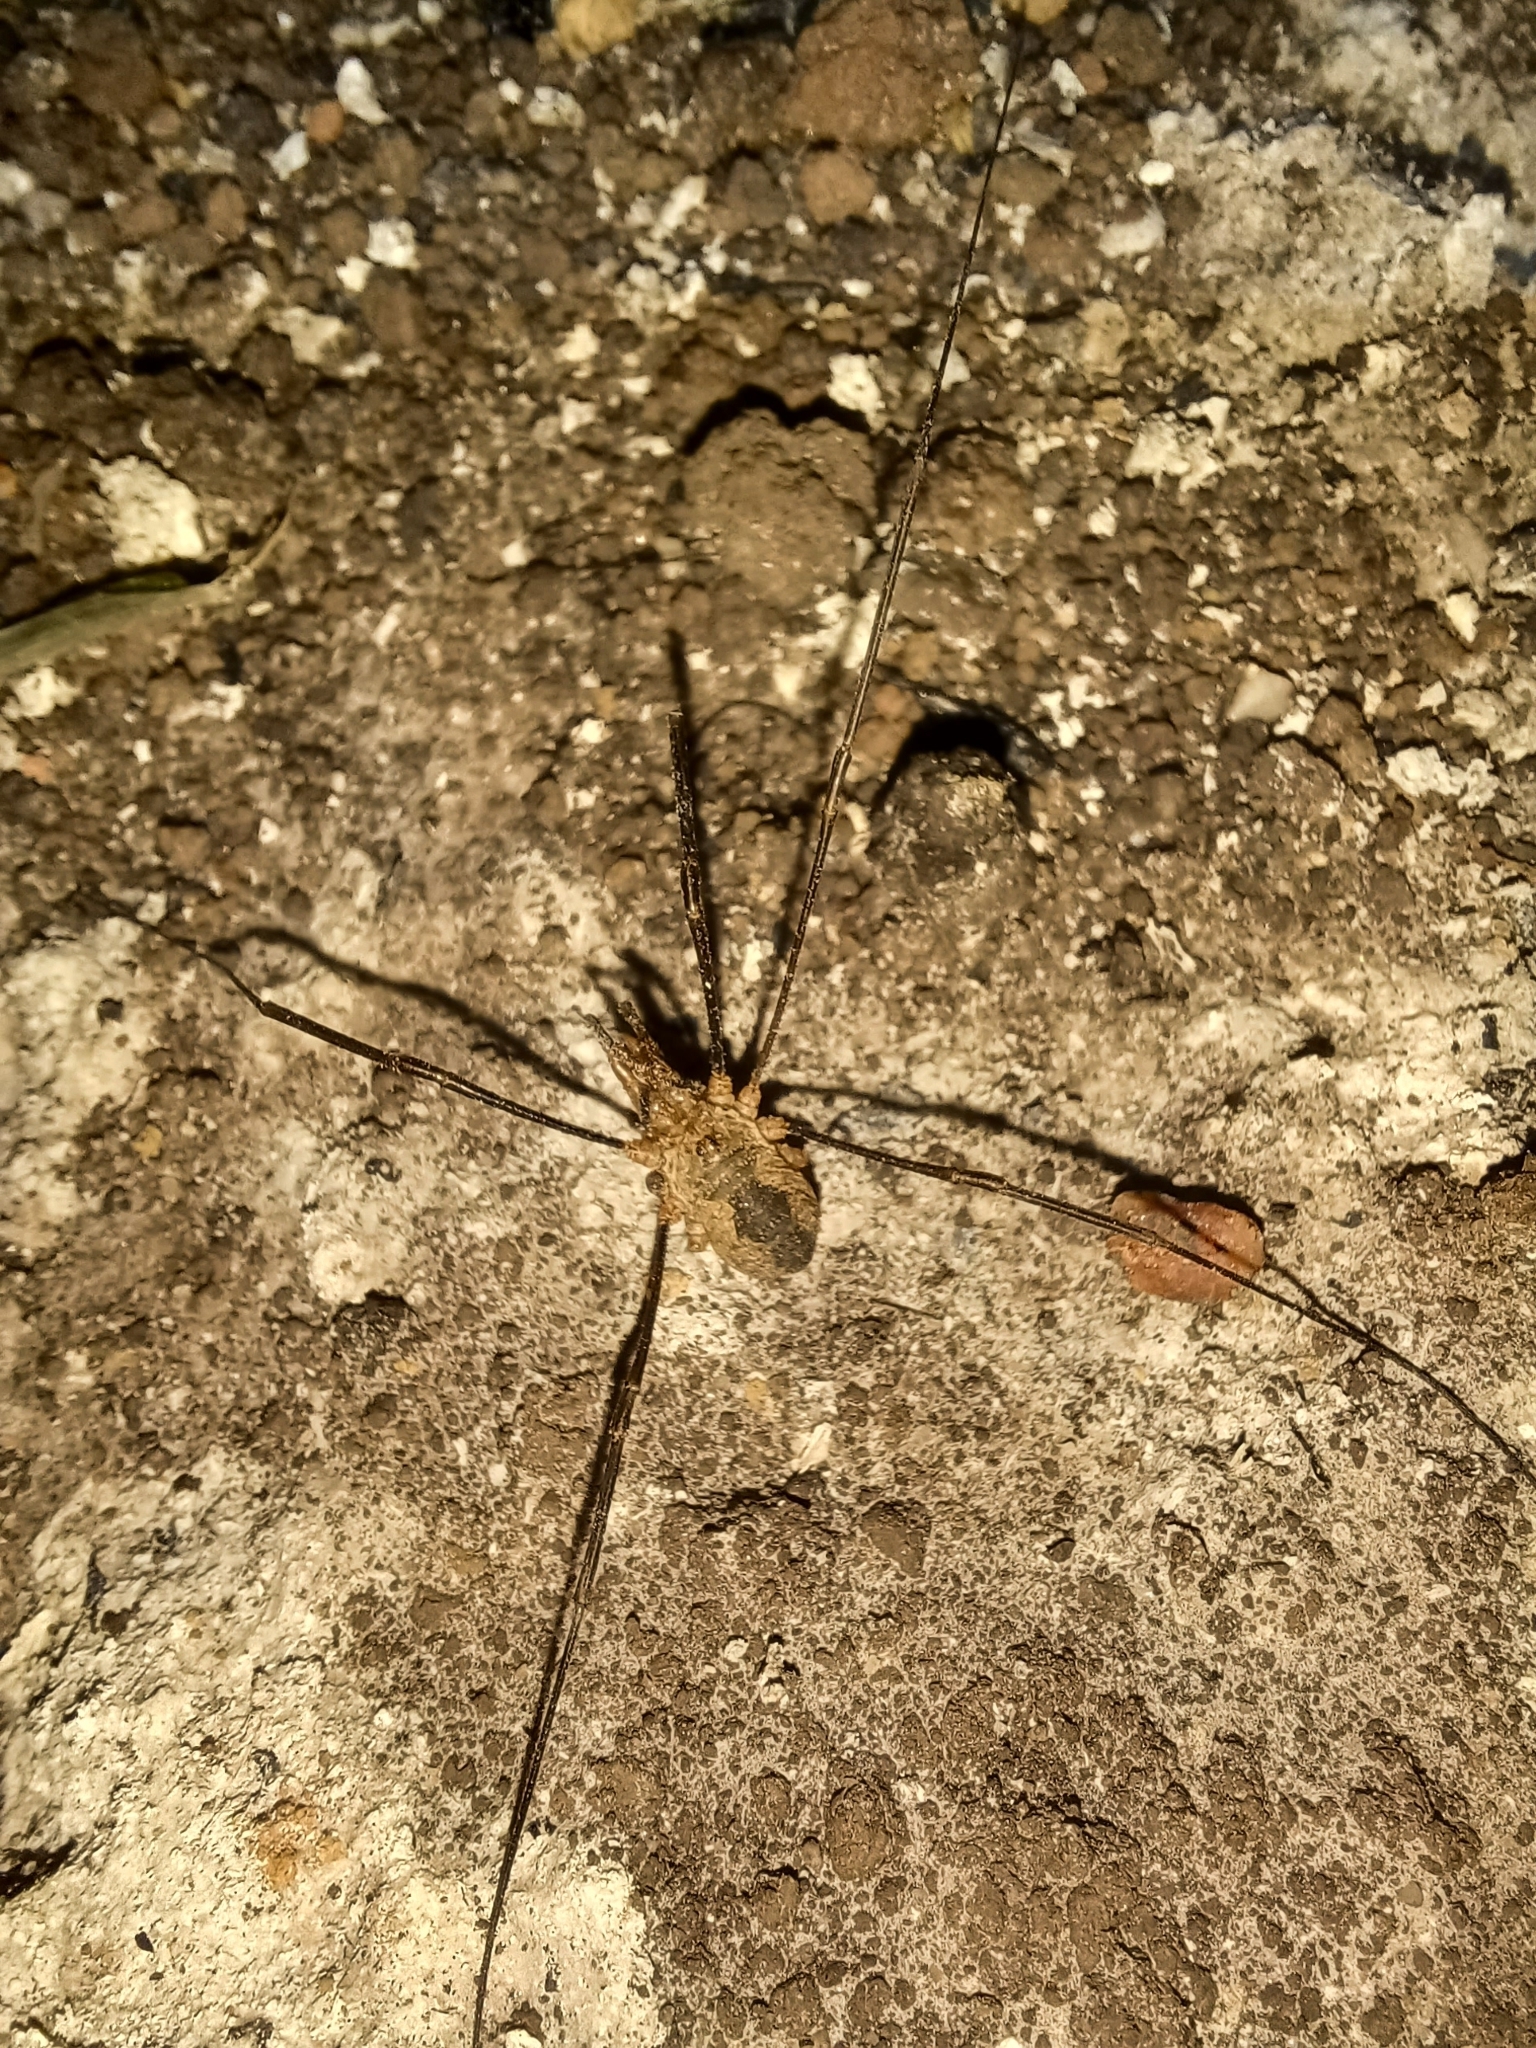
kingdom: Animalia
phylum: Arthropoda
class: Arachnida
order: Opiliones
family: Phalangiidae
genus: Phalangium
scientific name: Phalangium opilio
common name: Daddy longleg
